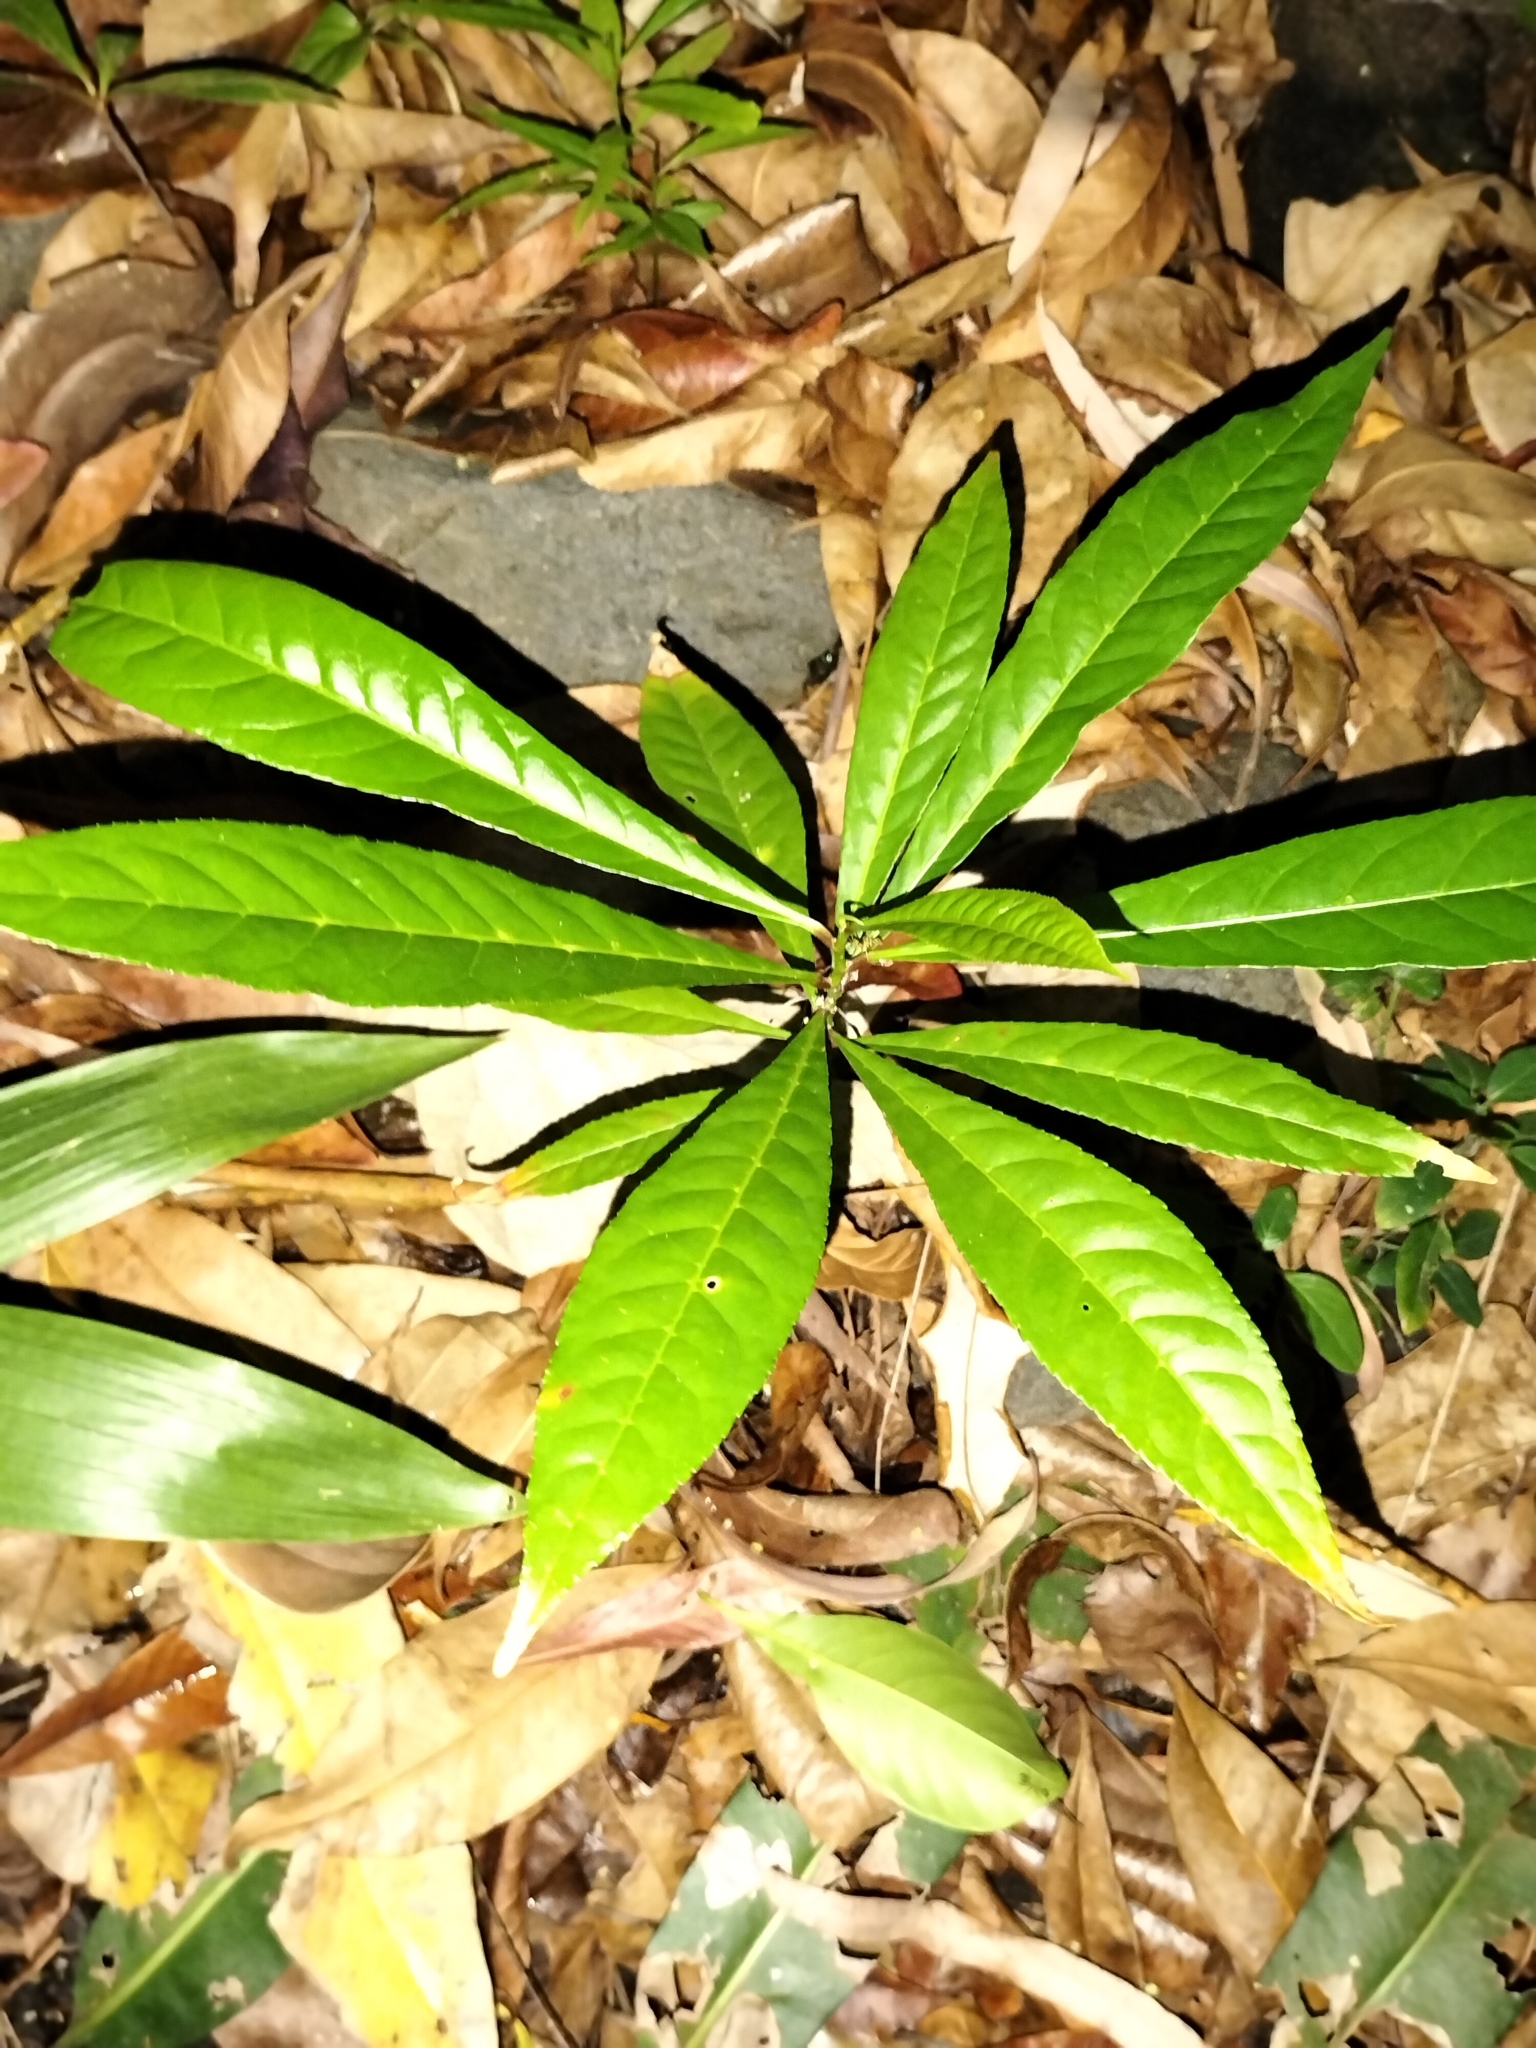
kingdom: Plantae
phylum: Tracheophyta
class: Magnoliopsida
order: Oxalidales
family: Elaeocarpaceae
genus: Elaeocarpus
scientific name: Elaeocarpus angustifolius
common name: Blue marble tree
